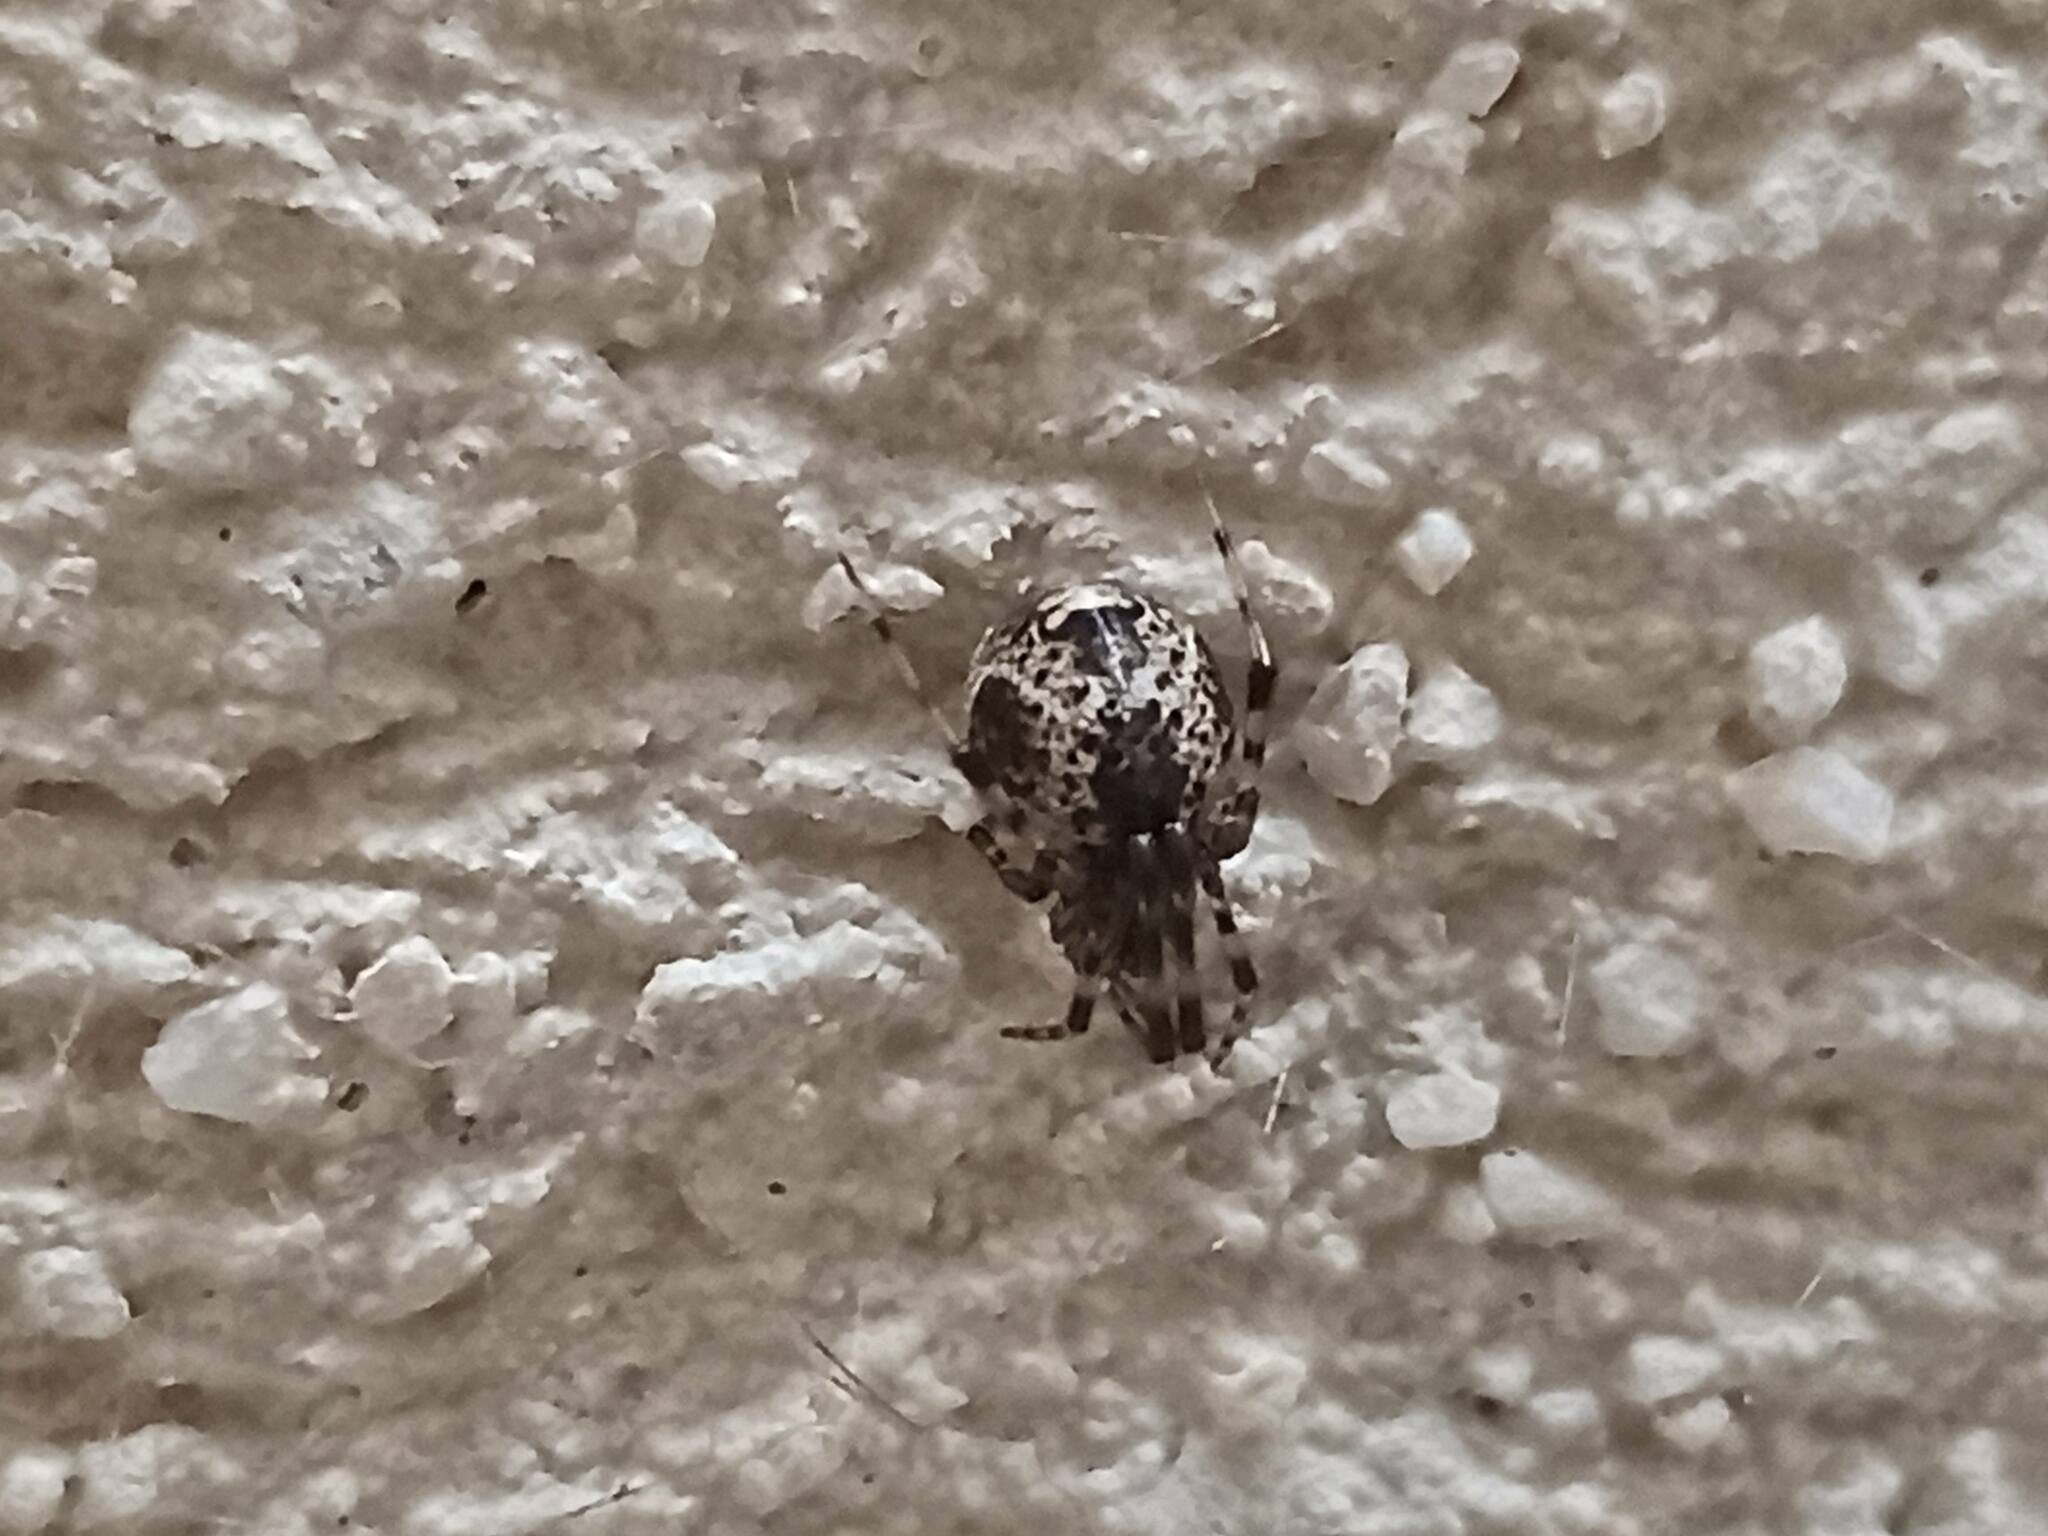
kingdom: Animalia
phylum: Arthropoda
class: Arachnida
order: Araneae
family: Theridiidae
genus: Parasteatoda
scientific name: Parasteatoda tepidariorum
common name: Common house spider
